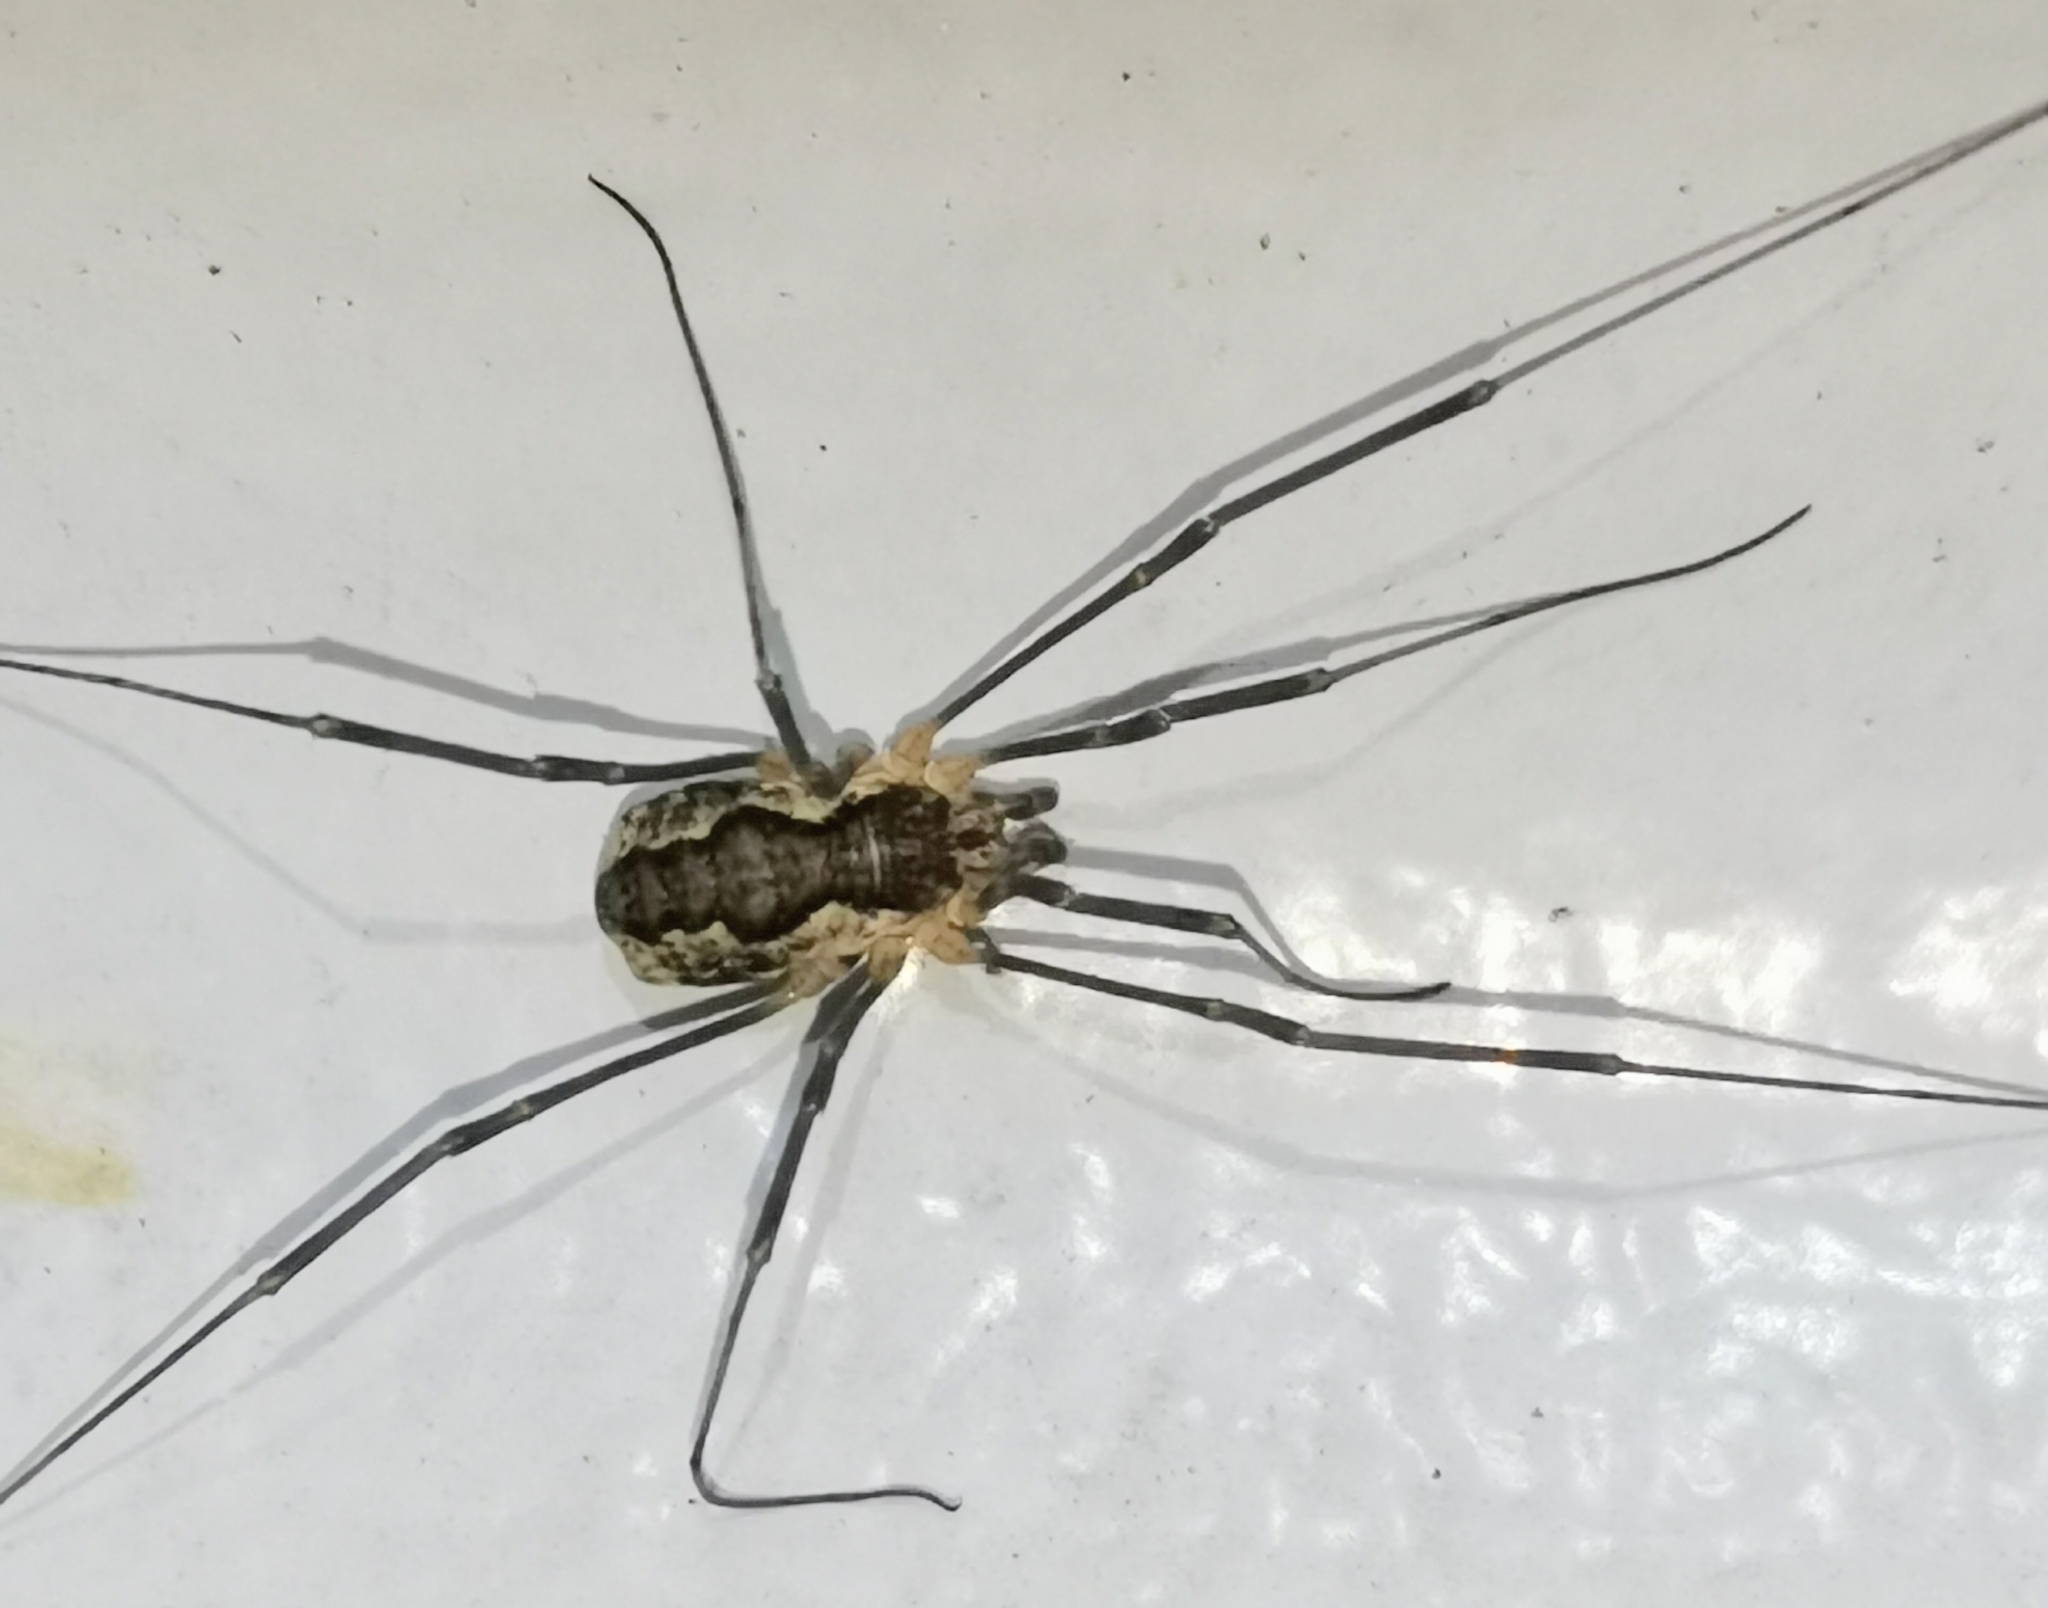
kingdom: Animalia
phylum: Arthropoda
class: Arachnida
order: Opiliones
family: Phalangiidae
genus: Mitopus
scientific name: Mitopus morio
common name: Saddleback harvestman
